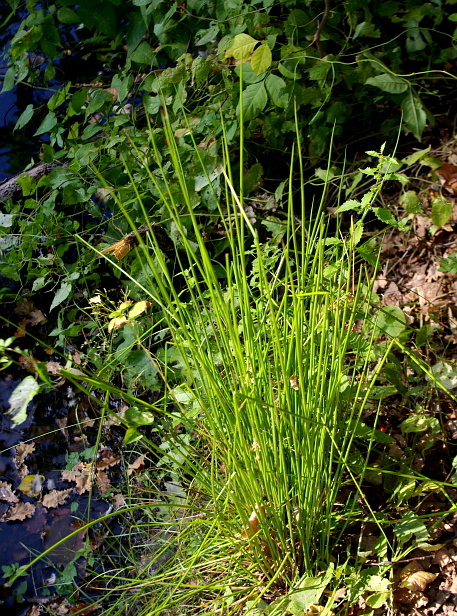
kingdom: Plantae
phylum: Tracheophyta
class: Liliopsida
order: Poales
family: Juncaceae
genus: Juncus
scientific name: Juncus effusus
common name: Soft rush
